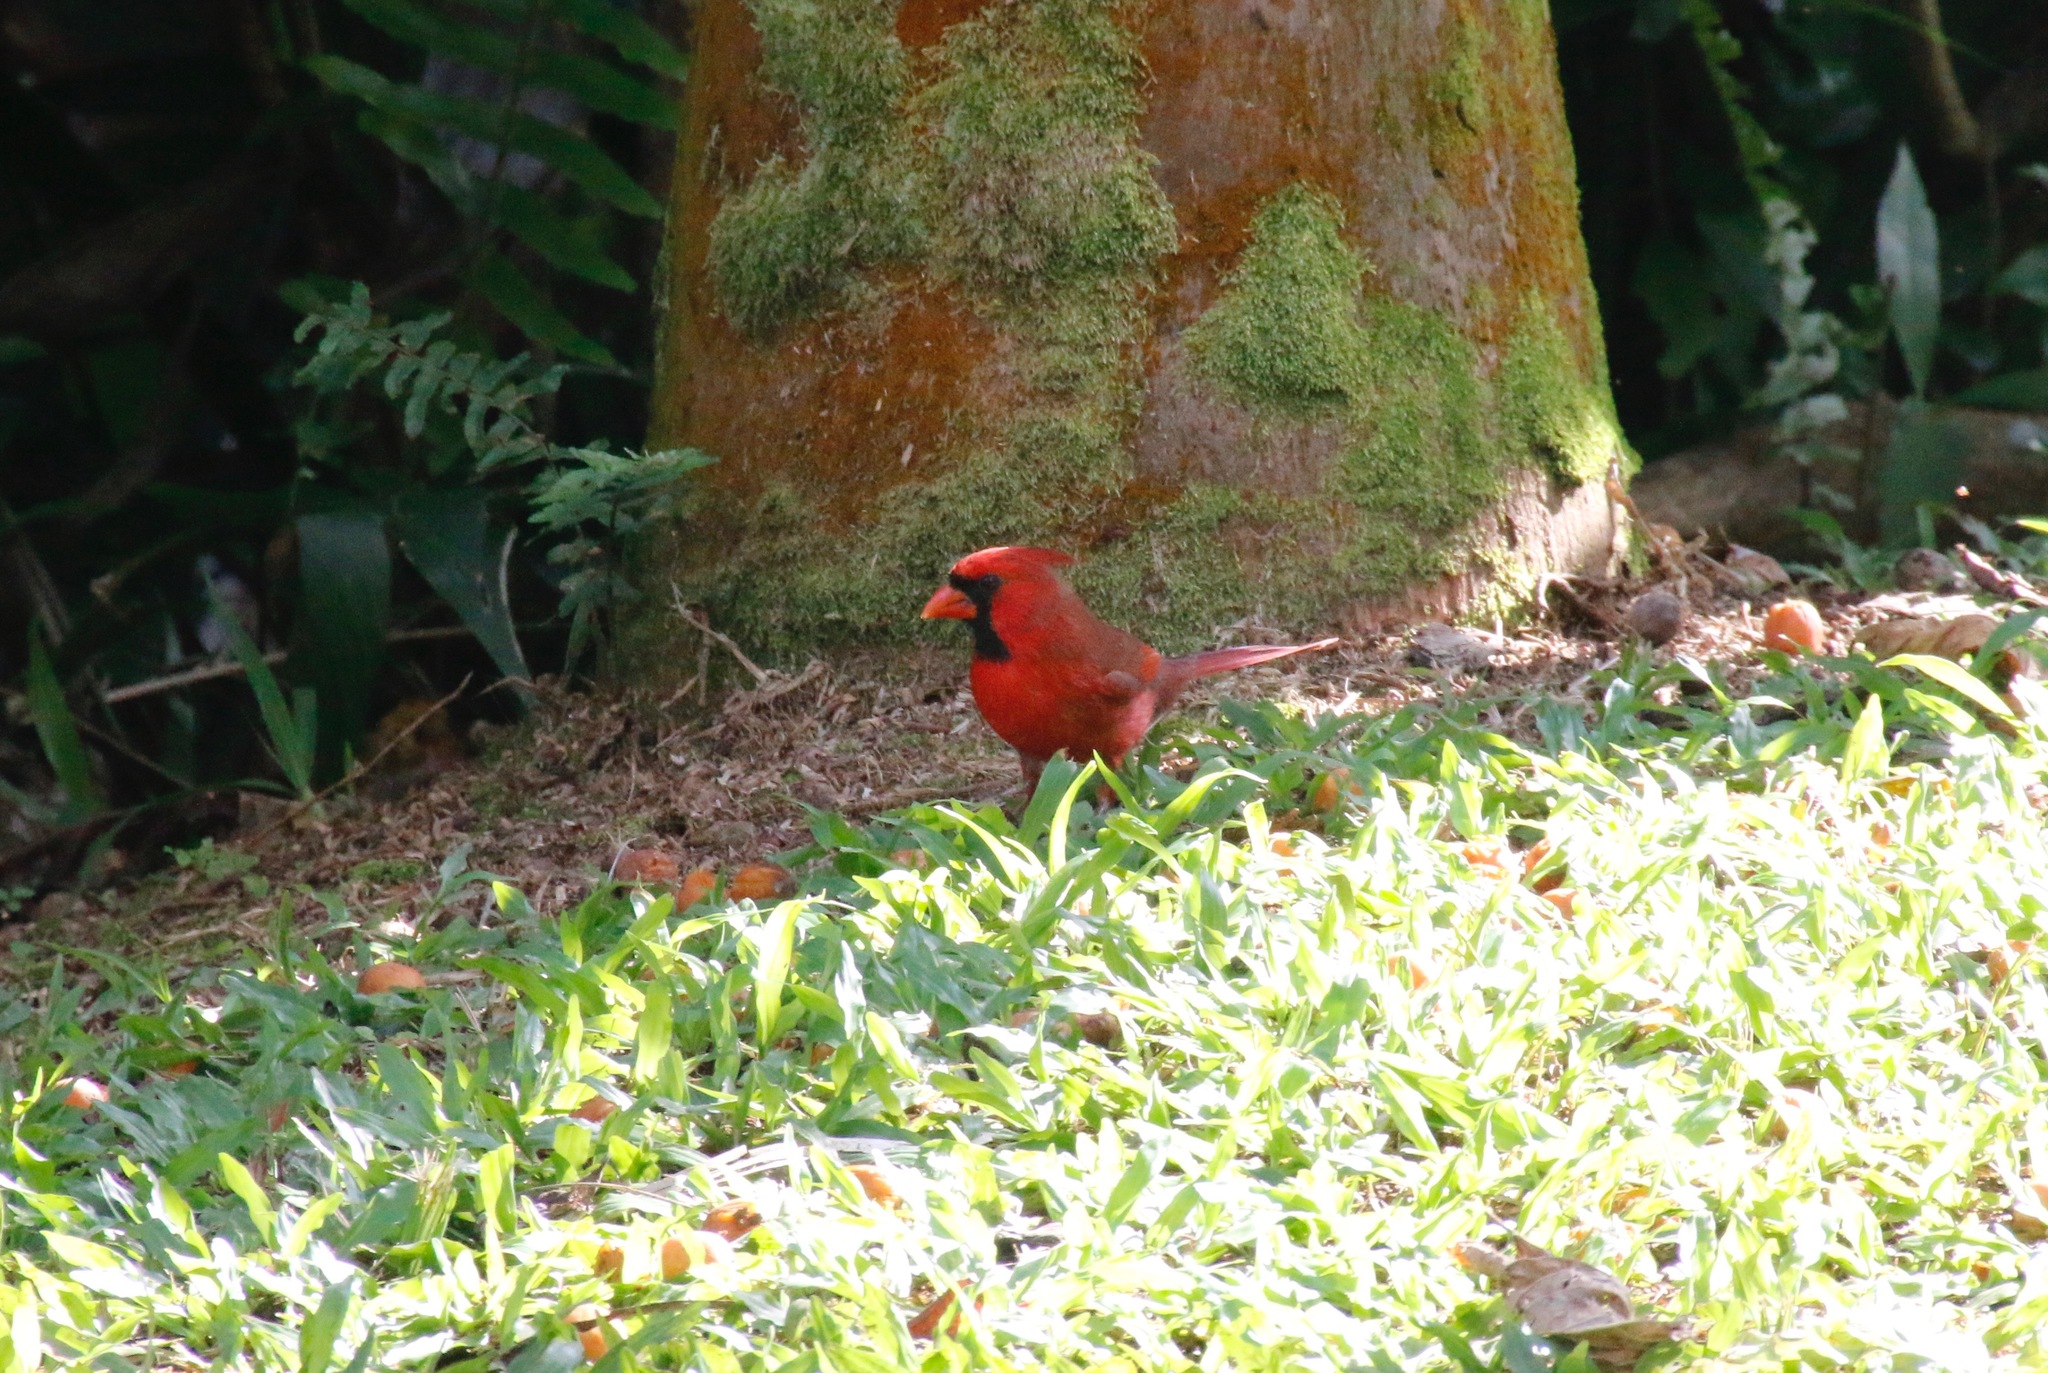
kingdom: Animalia
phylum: Chordata
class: Aves
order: Passeriformes
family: Cardinalidae
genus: Cardinalis
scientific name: Cardinalis cardinalis
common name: Northern cardinal
